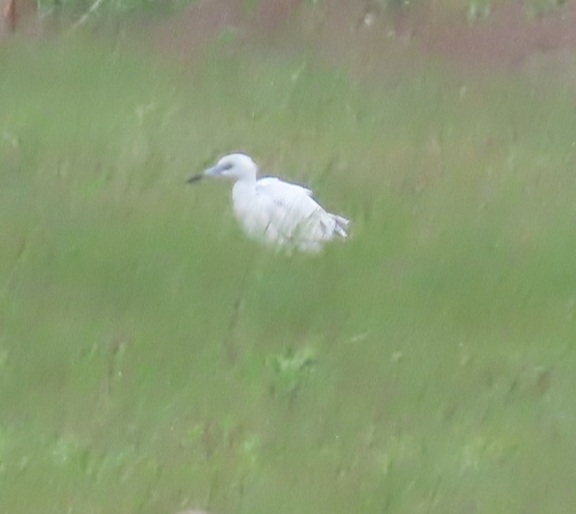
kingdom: Animalia
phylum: Chordata
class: Aves
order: Pelecaniformes
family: Ardeidae
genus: Egretta
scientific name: Egretta caerulea
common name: Little blue heron
